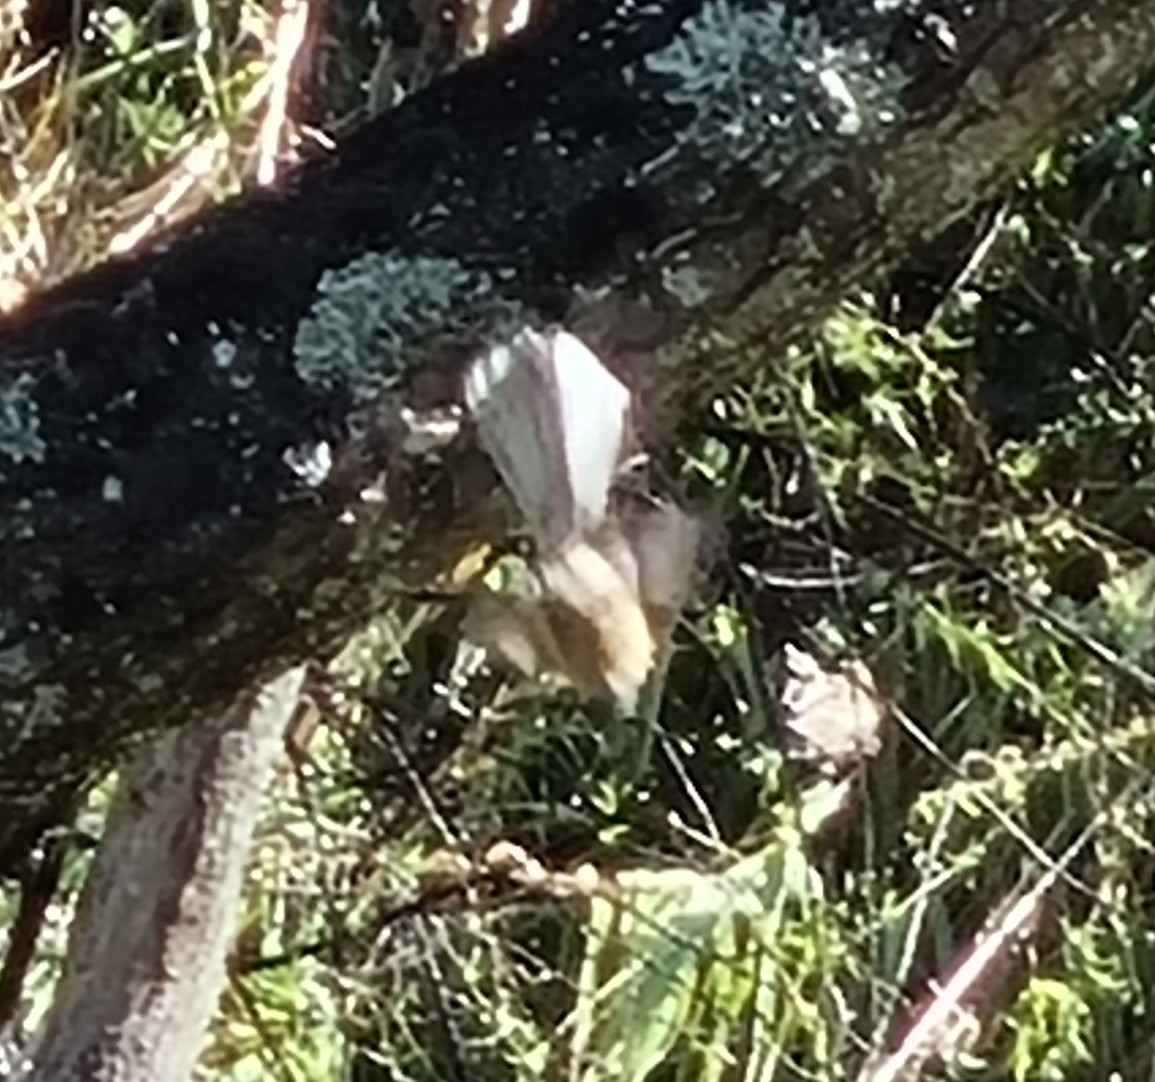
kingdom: Animalia
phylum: Chordata
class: Aves
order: Passeriformes
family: Rhipiduridae
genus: Rhipidura
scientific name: Rhipidura fuliginosa
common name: New zealand fantail
